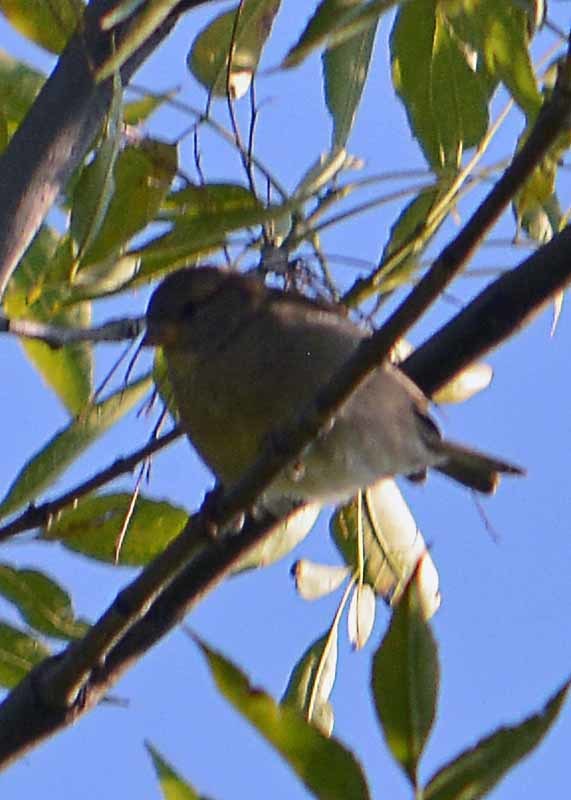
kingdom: Animalia
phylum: Chordata
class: Aves
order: Passeriformes
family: Passeridae
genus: Passer
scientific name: Passer domesticus
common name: House sparrow
